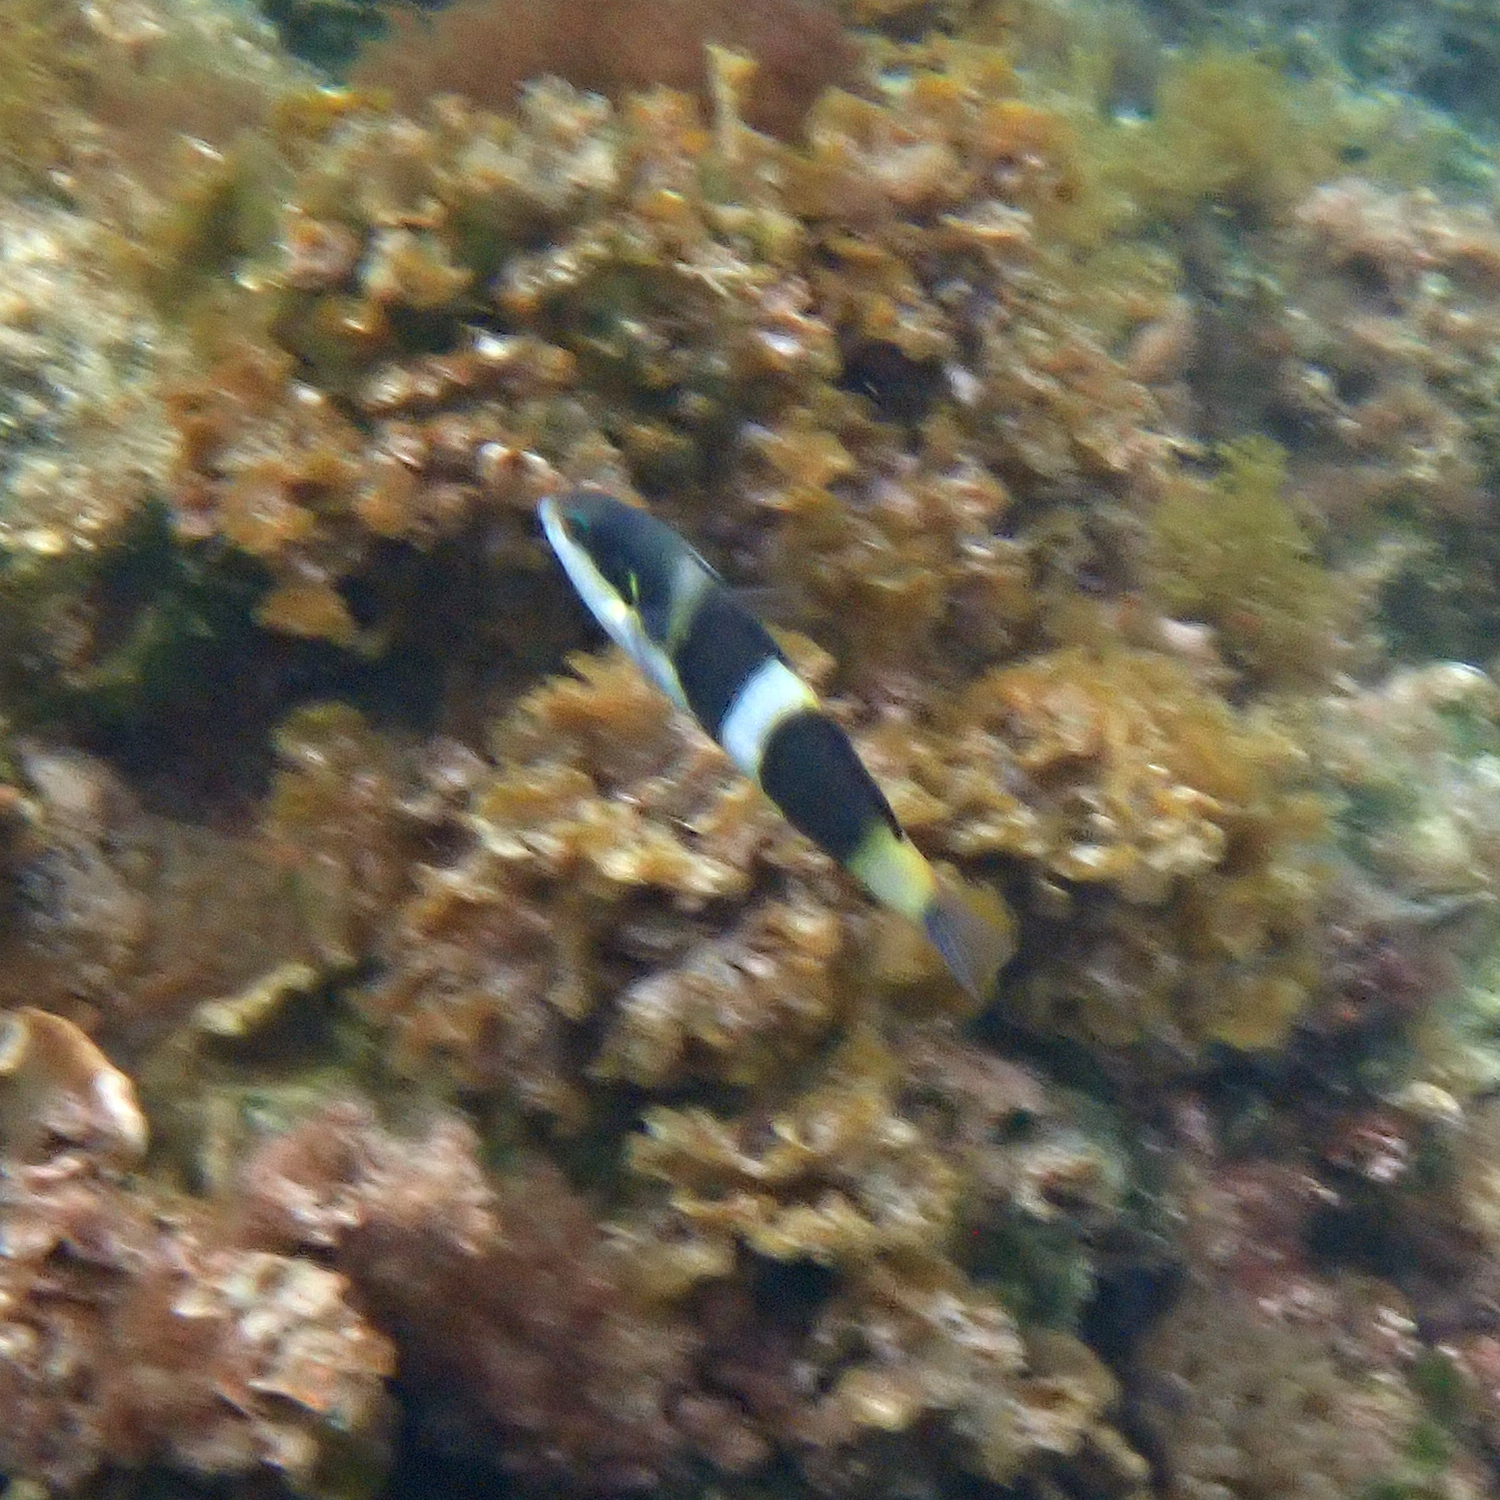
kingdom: Animalia
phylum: Chordata
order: Perciformes
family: Labridae
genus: Thalassoma
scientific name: Thalassoma nigrofasciatum
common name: Black-barred wrasse
